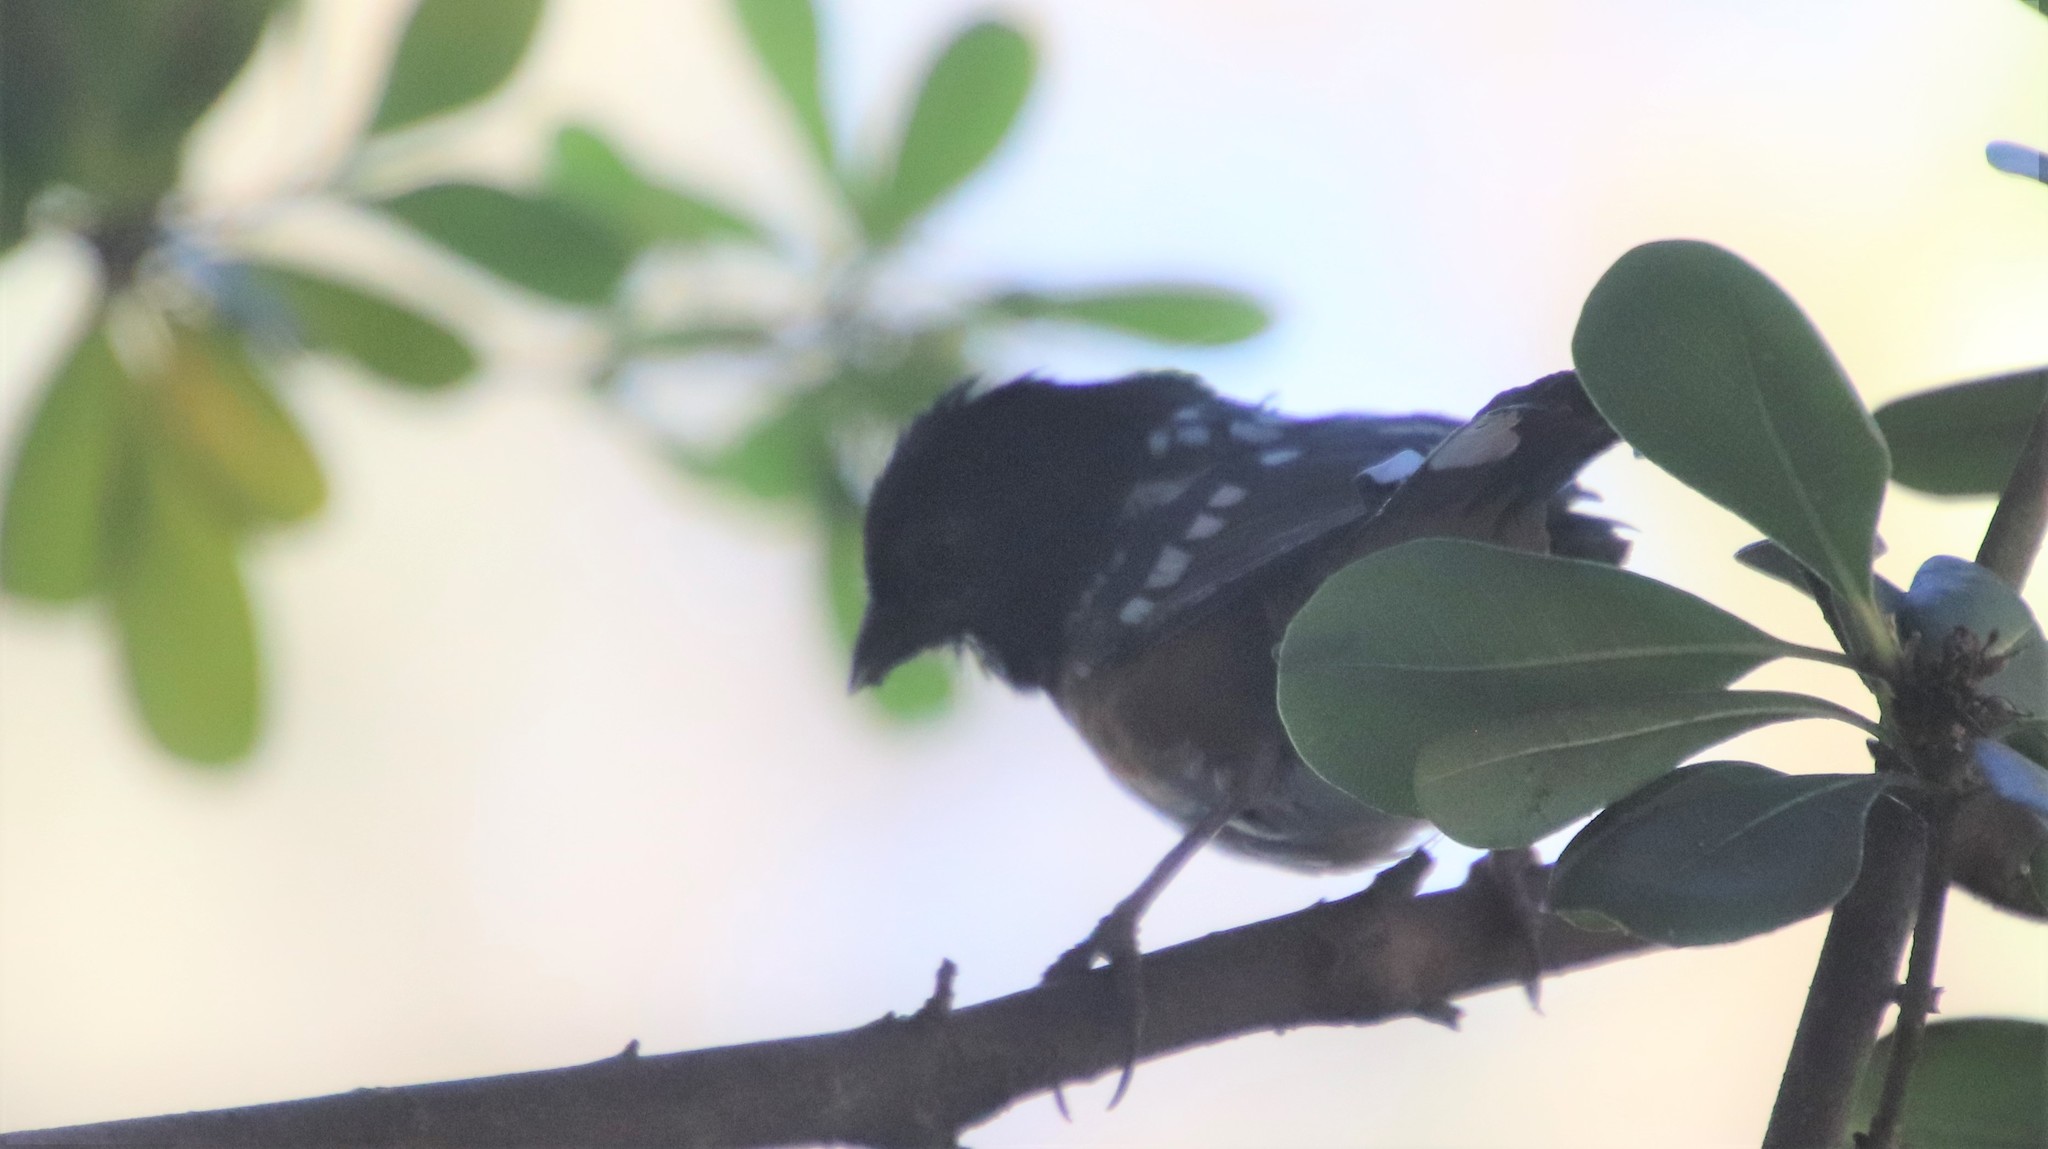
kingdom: Animalia
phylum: Chordata
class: Aves
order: Passeriformes
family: Passerellidae
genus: Pipilo
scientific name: Pipilo maculatus
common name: Spotted towhee
